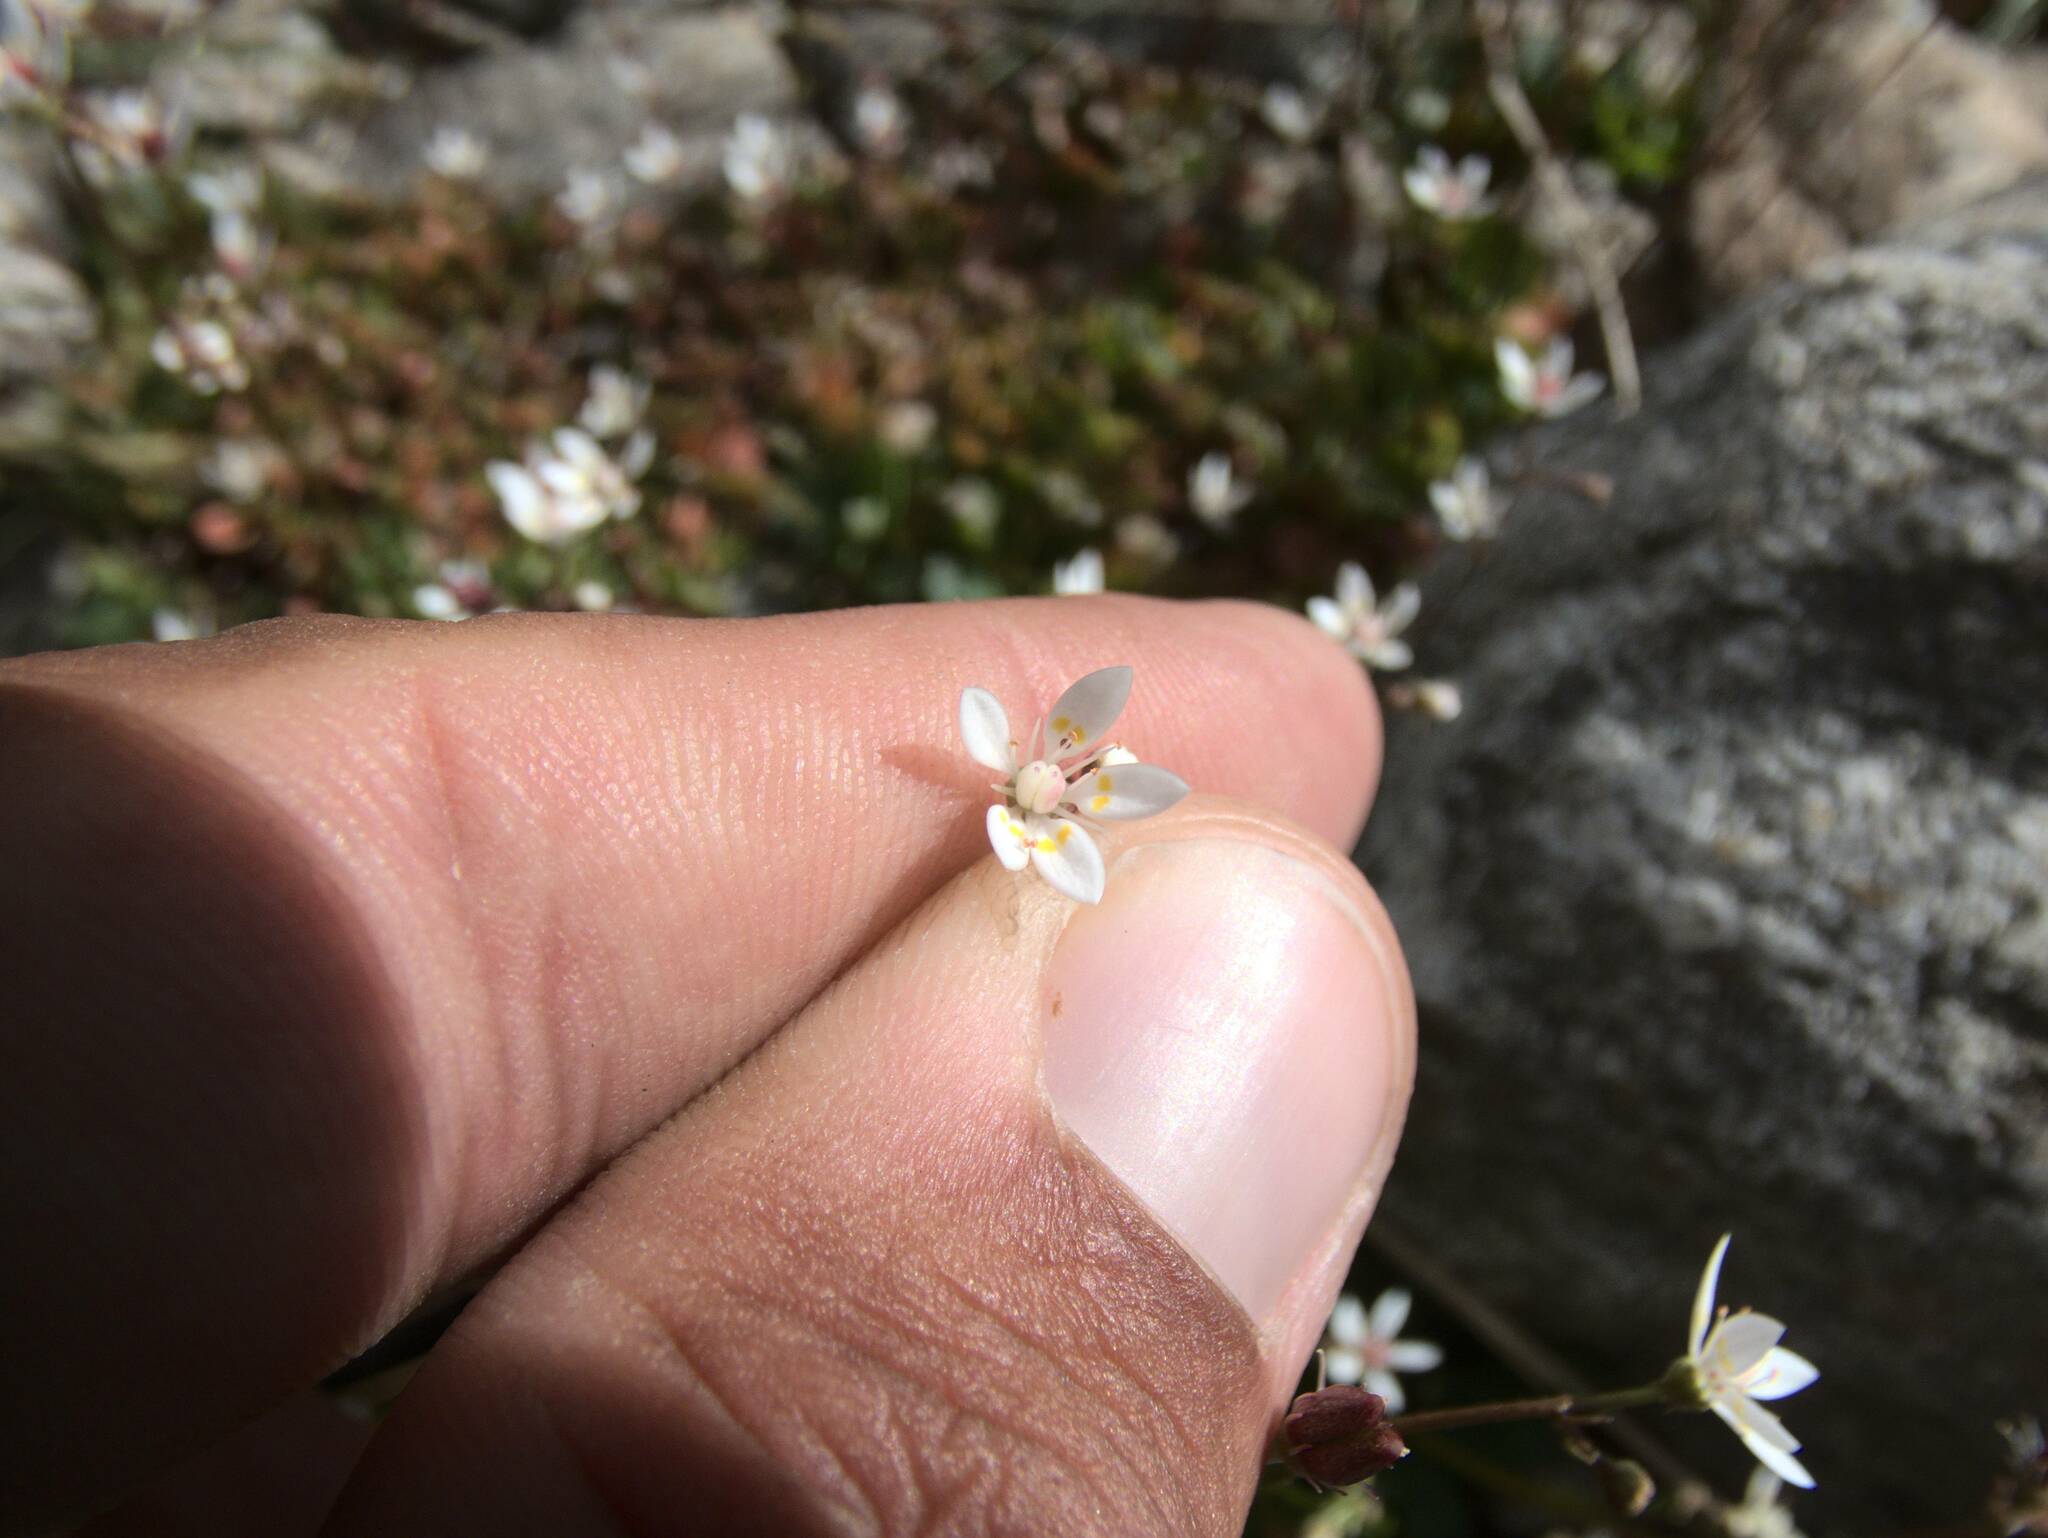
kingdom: Plantae
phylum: Tracheophyta
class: Magnoliopsida
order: Saxifragales
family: Saxifragaceae
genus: Micranthes
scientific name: Micranthes stellaris
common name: Starry saxifrage
